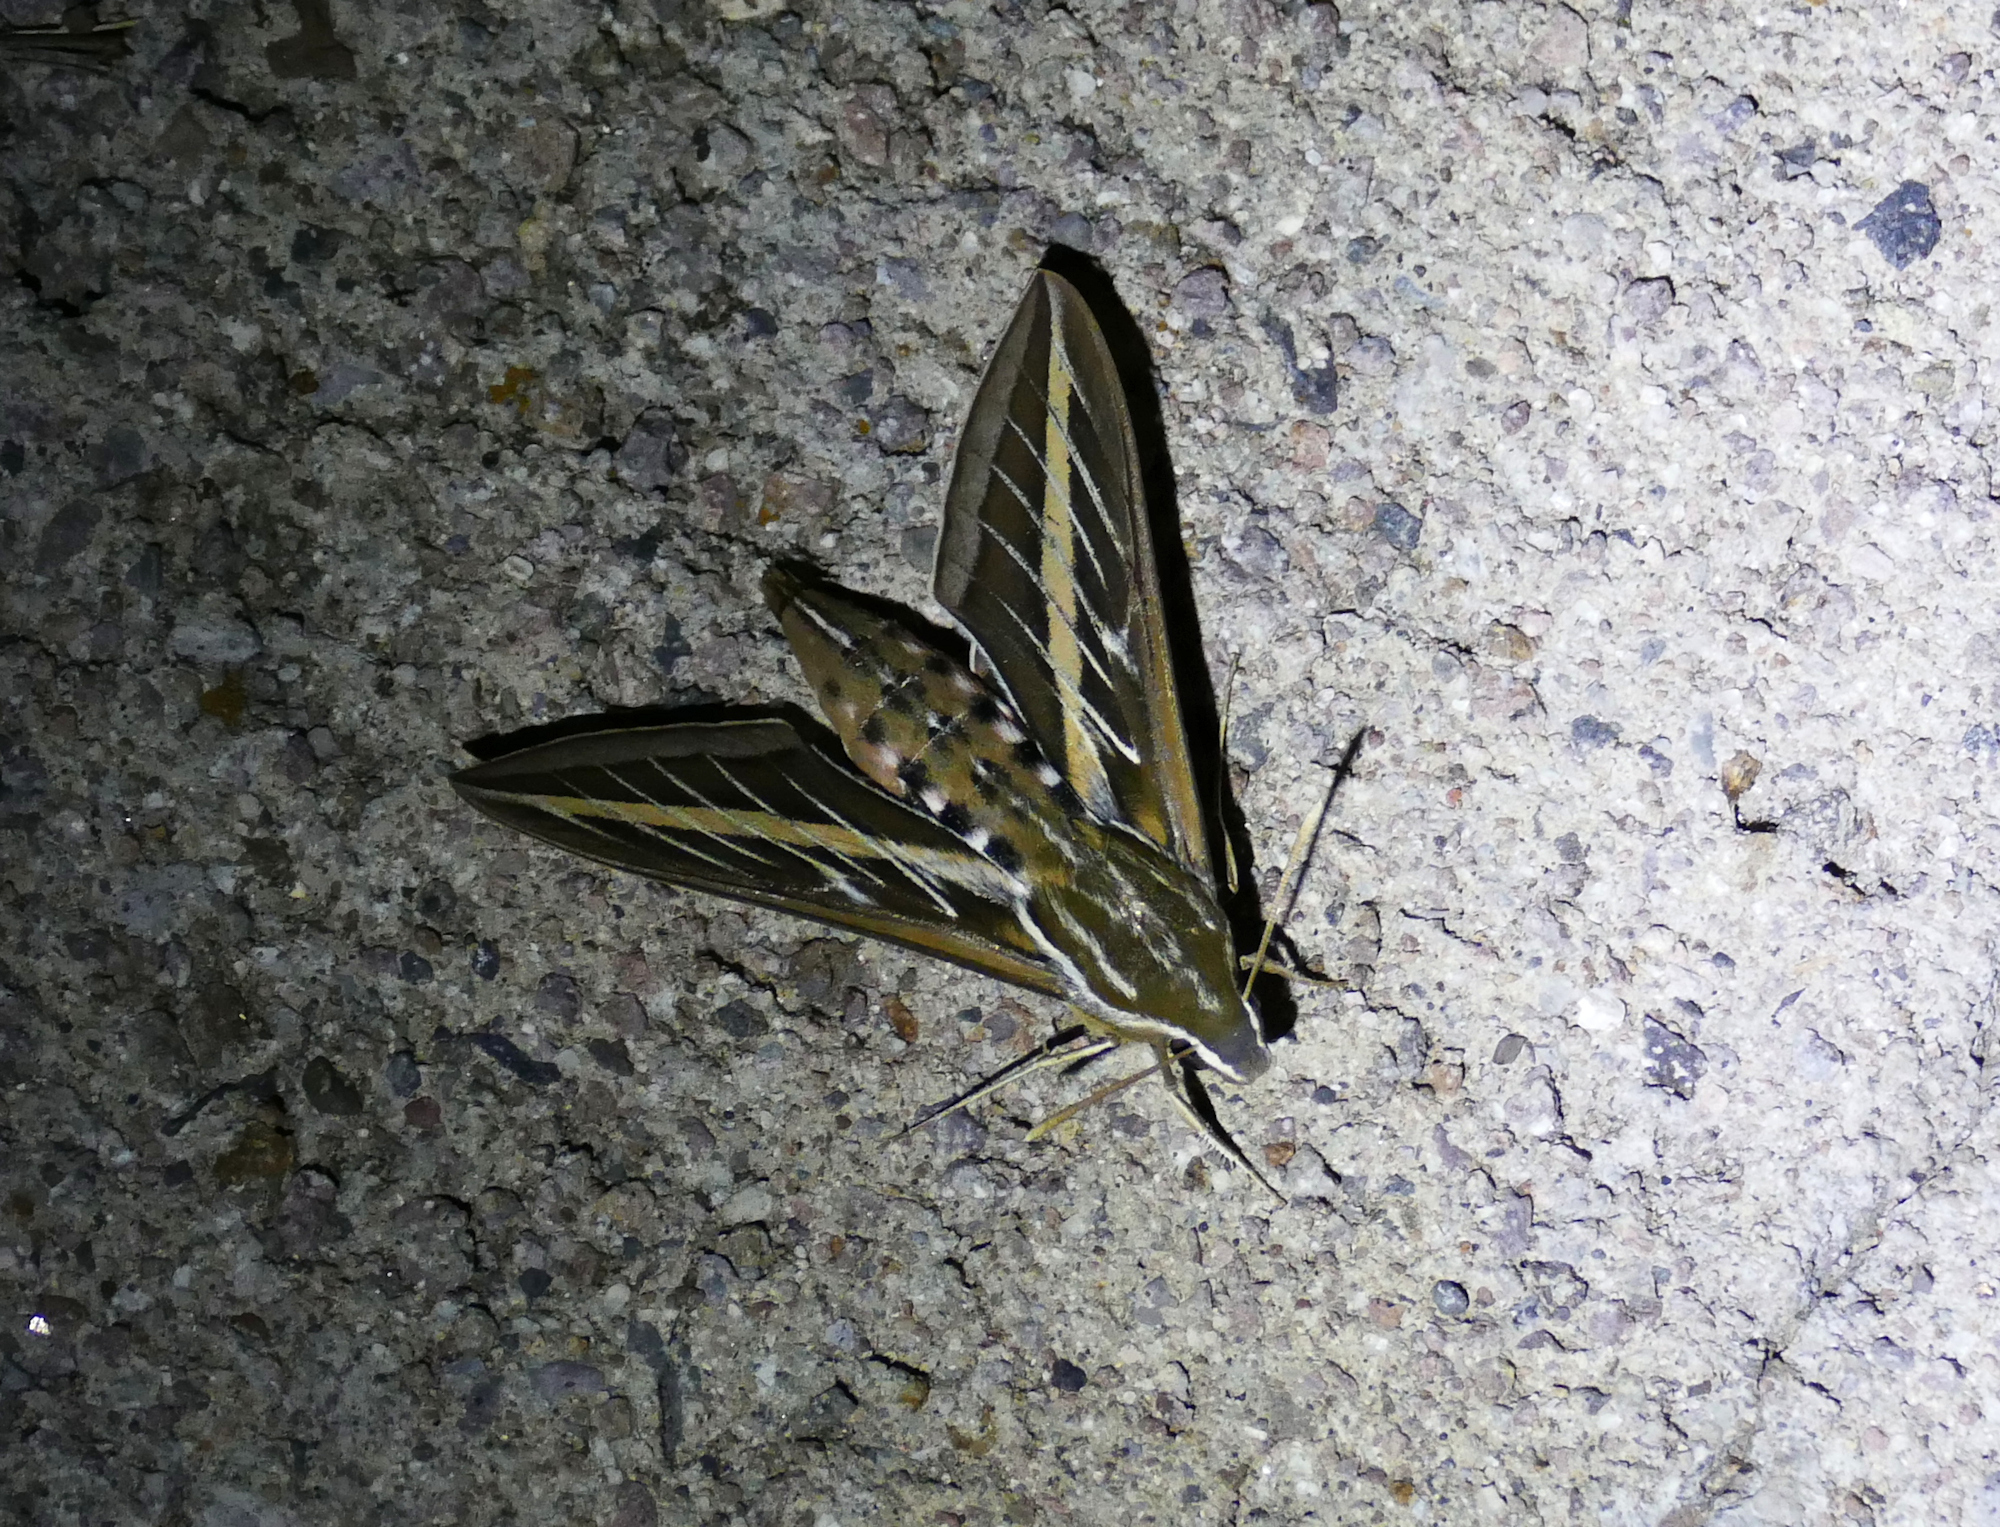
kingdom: Animalia
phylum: Arthropoda
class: Insecta
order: Lepidoptera
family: Sphingidae
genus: Hyles
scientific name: Hyles lineata
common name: White-lined sphinx
